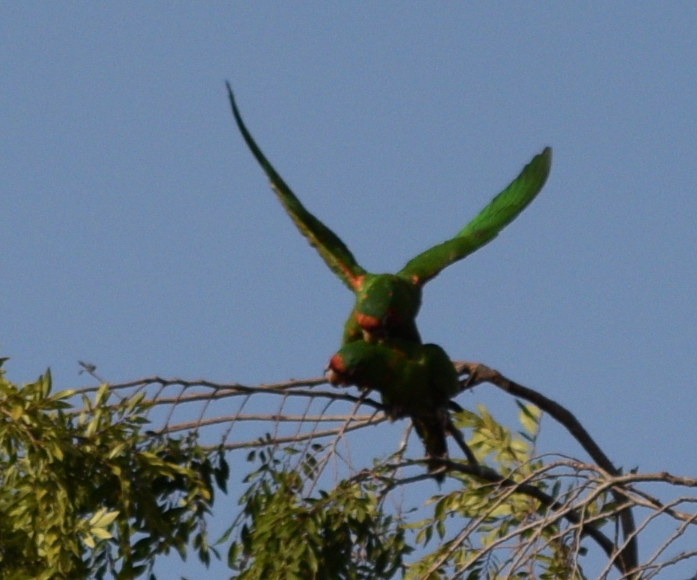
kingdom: Animalia
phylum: Chordata
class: Aves
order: Psittaciformes
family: Psittacidae
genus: Aratinga
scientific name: Aratinga mitrata
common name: Mitred parakeet
